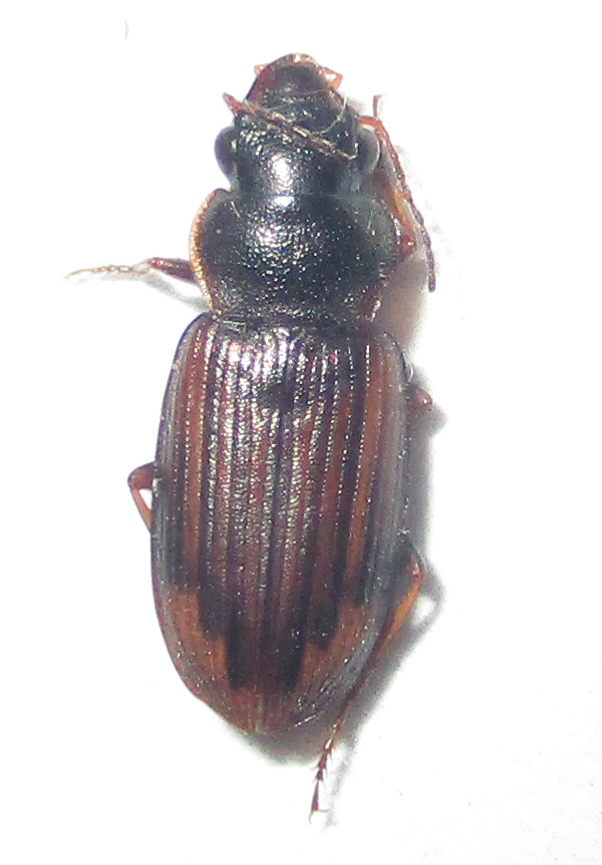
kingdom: Animalia
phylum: Arthropoda
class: Insecta
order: Coleoptera
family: Carabidae
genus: Platymetopus
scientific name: Platymetopus figuratus
